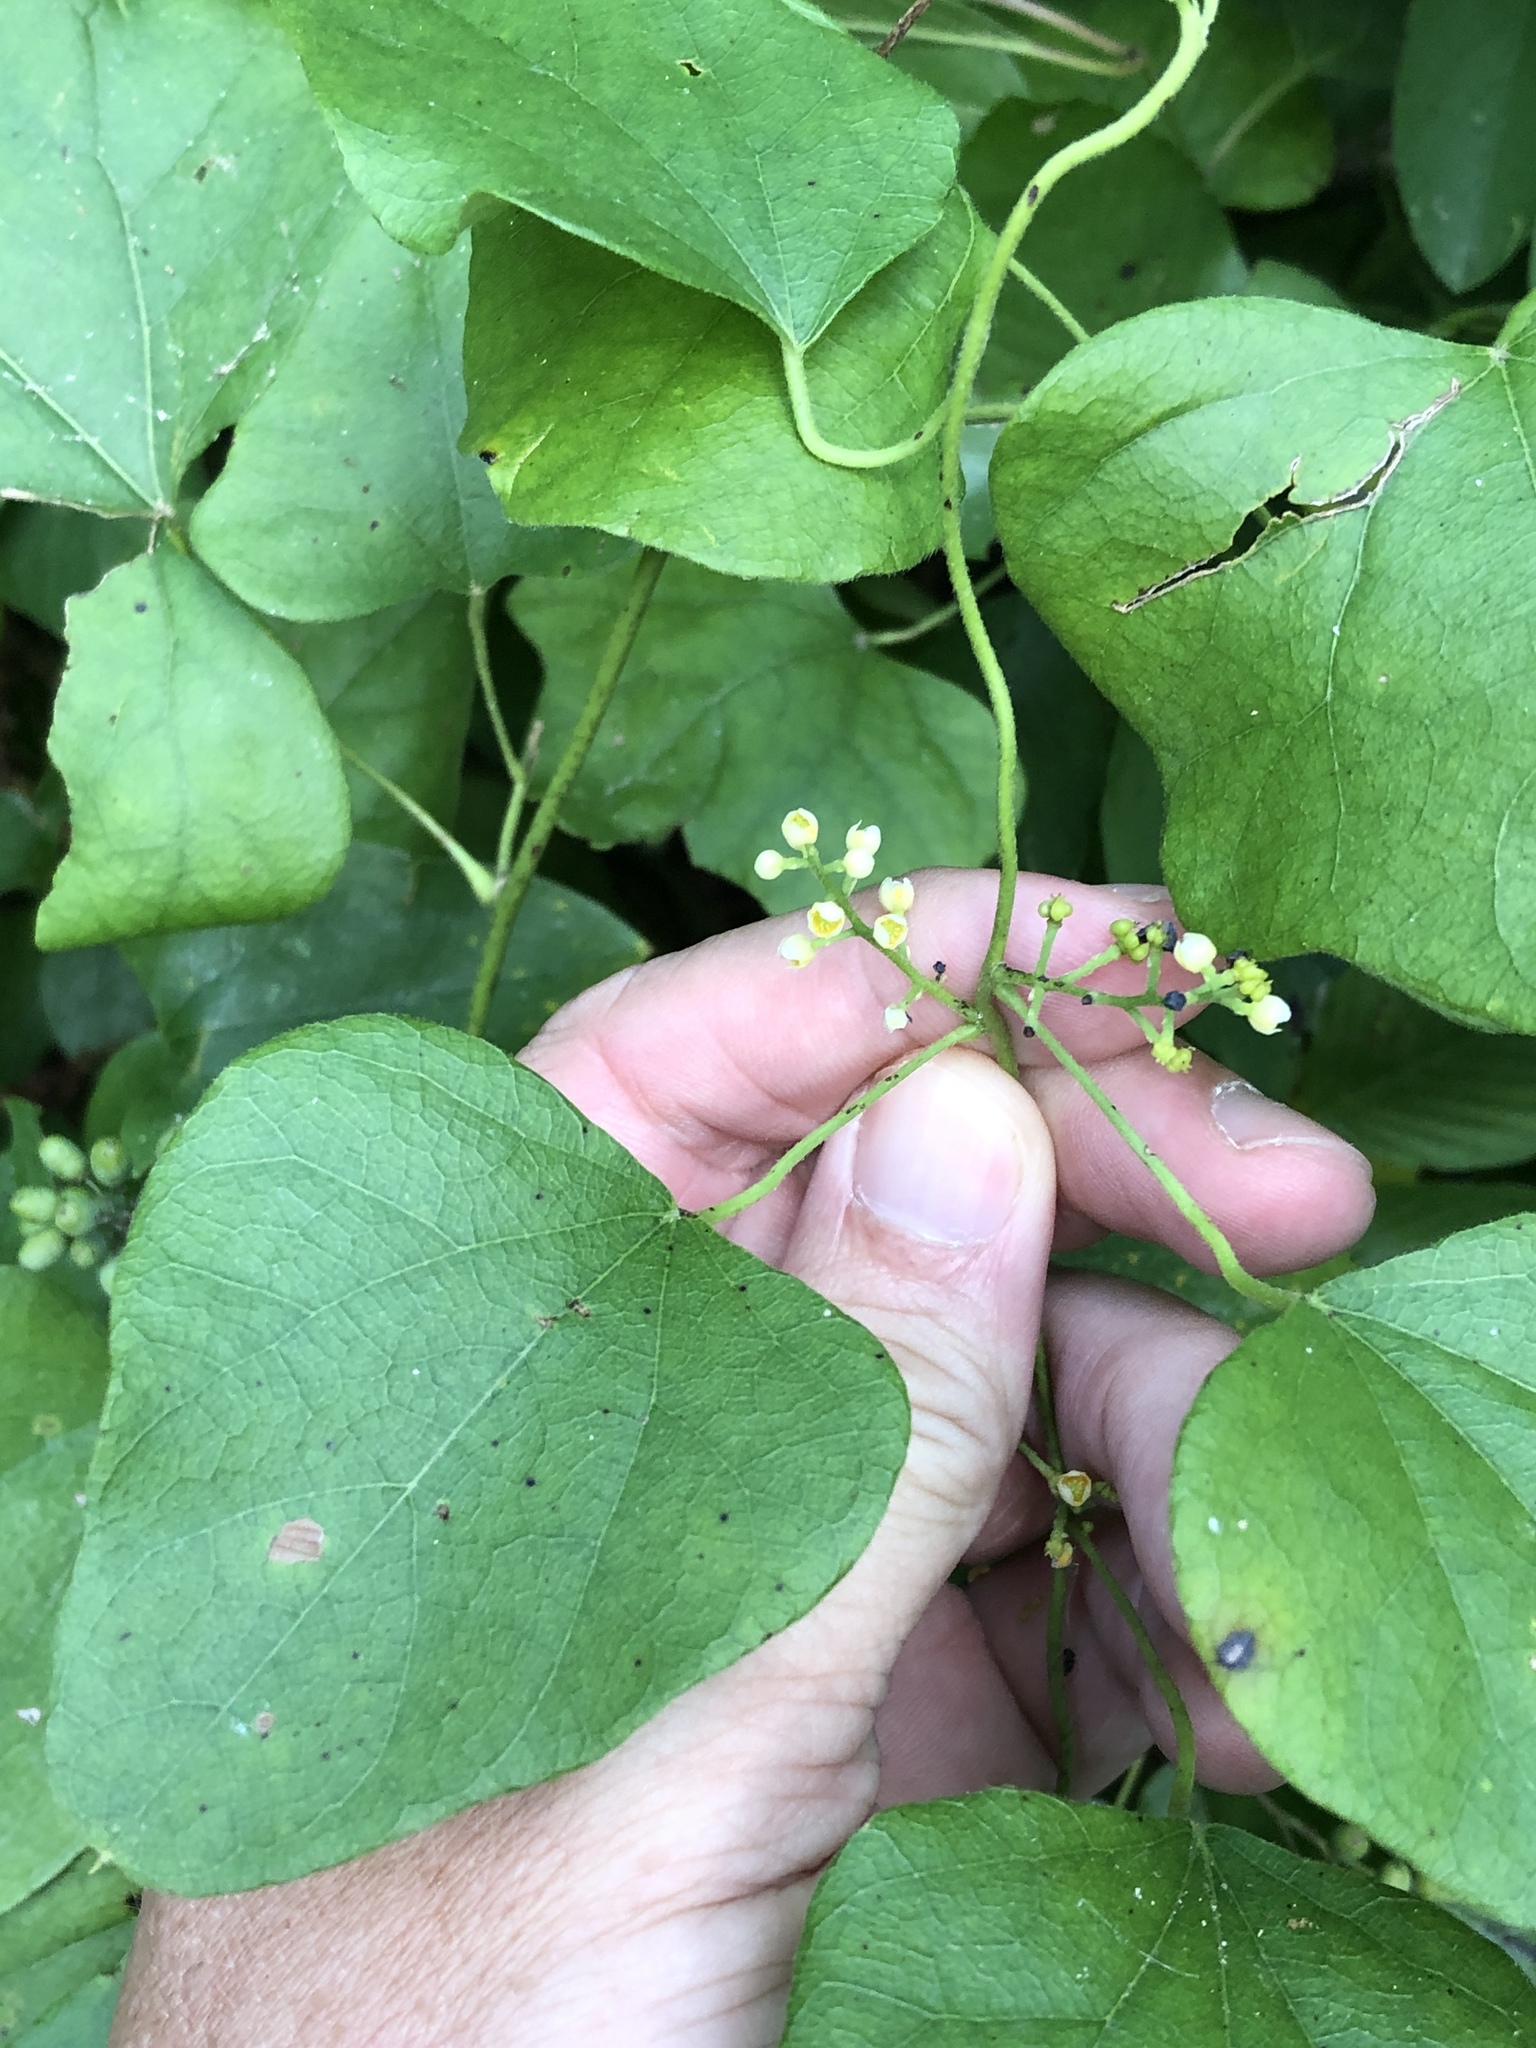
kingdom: Plantae
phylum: Tracheophyta
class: Magnoliopsida
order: Ranunculales
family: Menispermaceae
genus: Cocculus
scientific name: Cocculus carolinus
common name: Carolina moonseed
